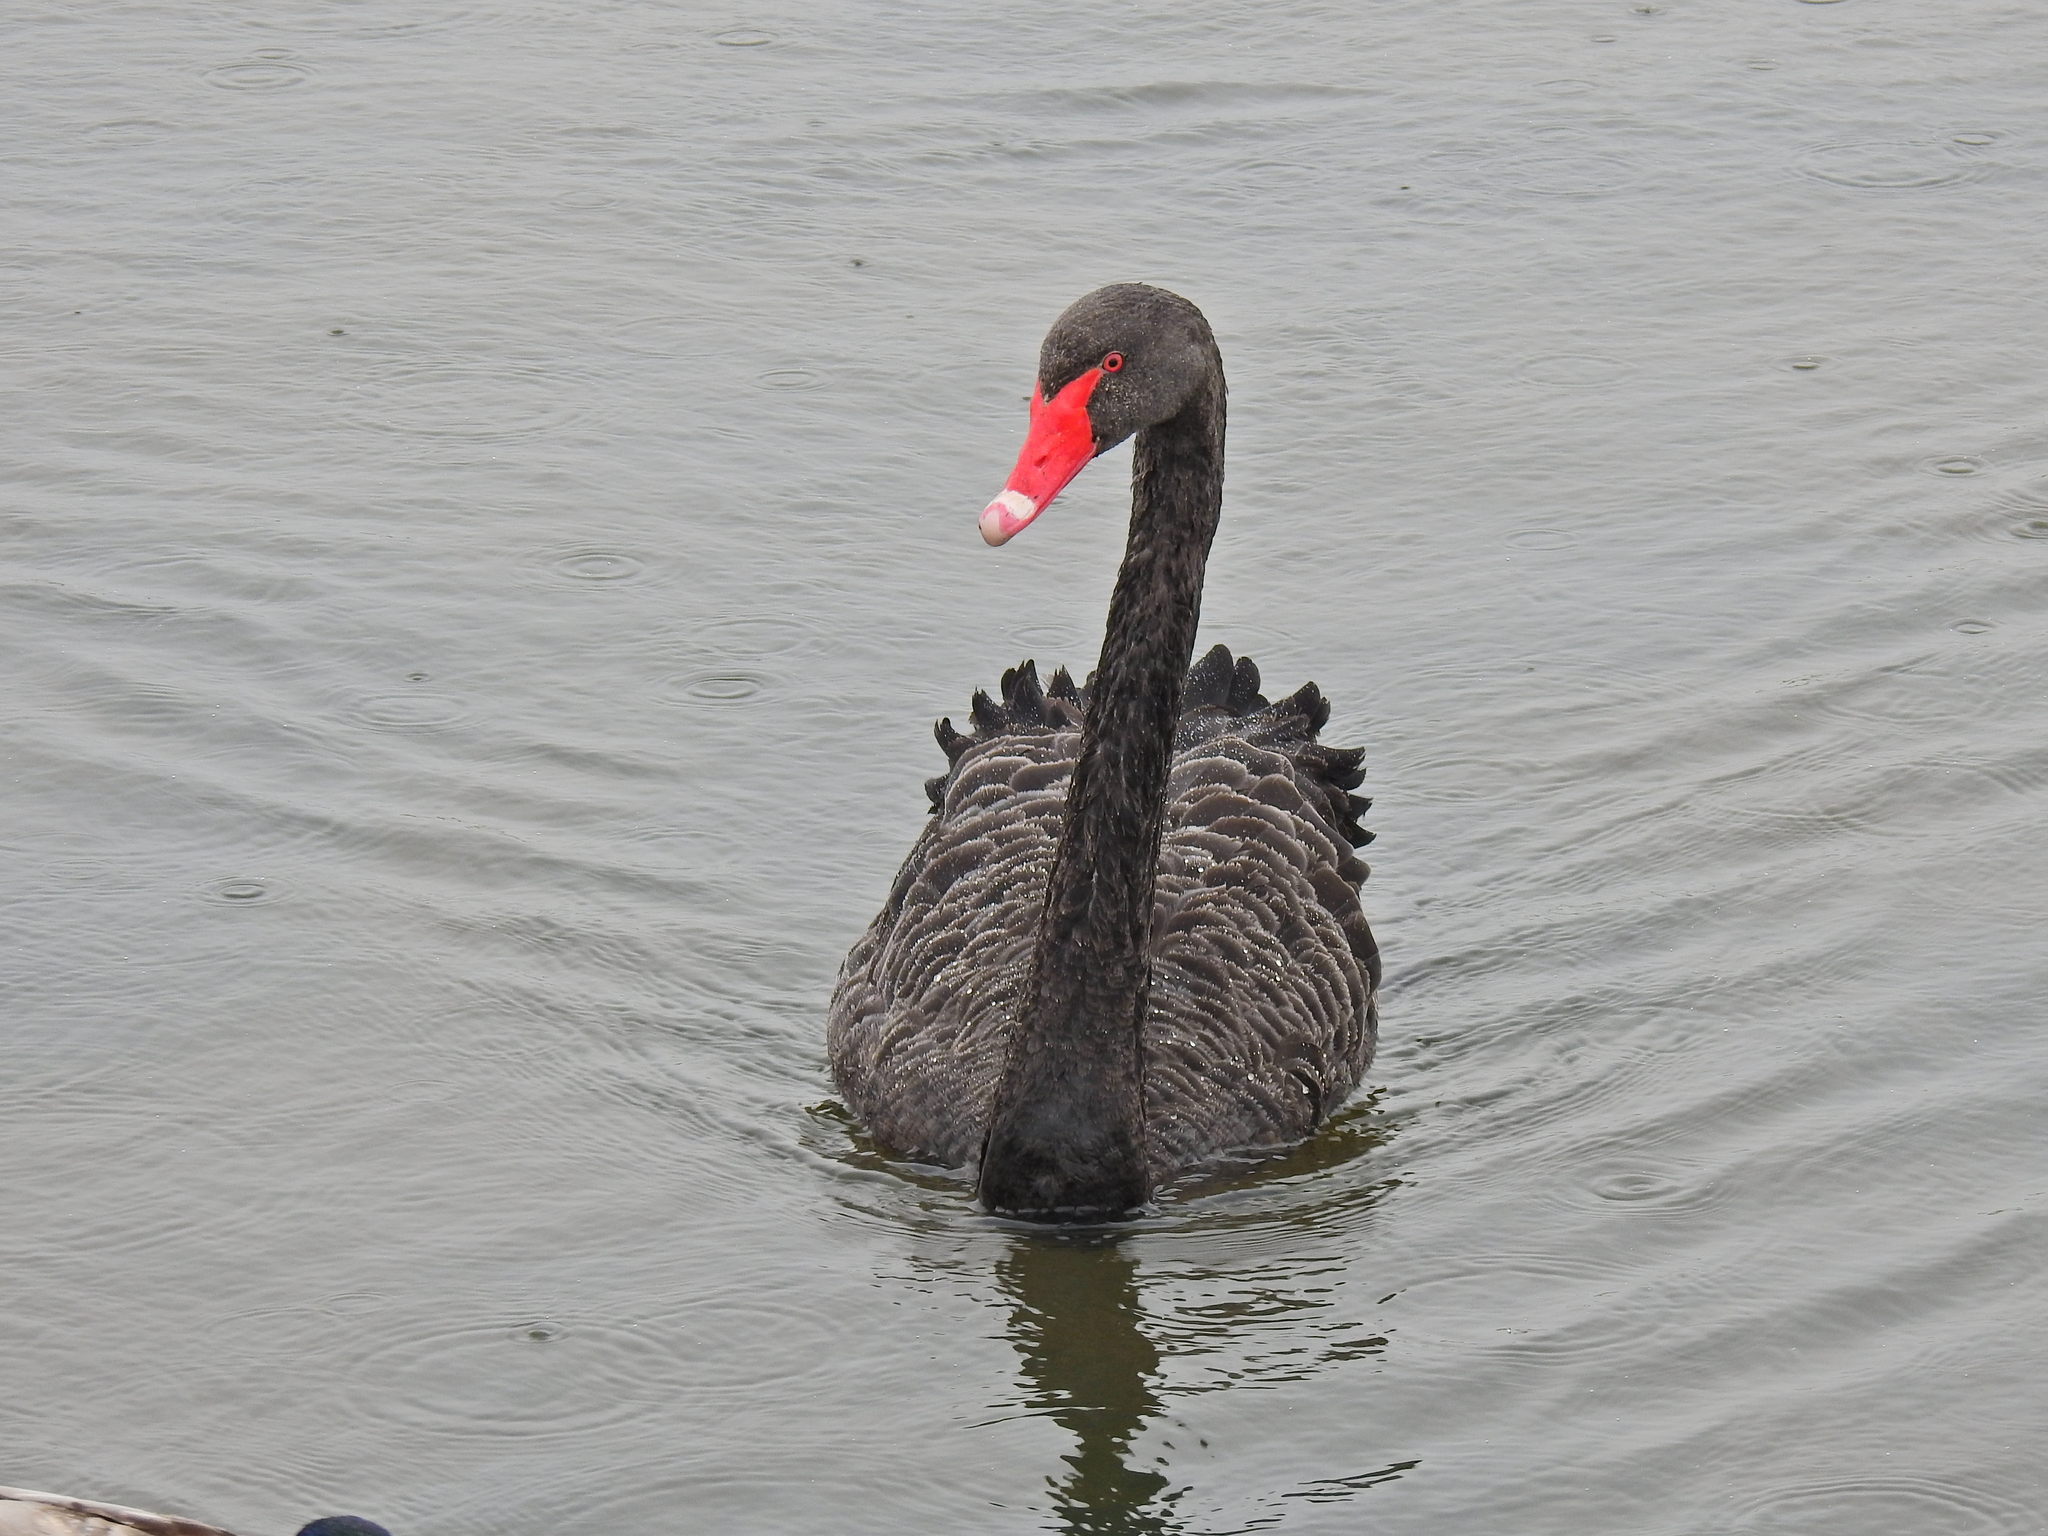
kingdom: Animalia
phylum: Chordata
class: Aves
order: Anseriformes
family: Anatidae
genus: Cygnus
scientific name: Cygnus atratus
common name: Black swan
